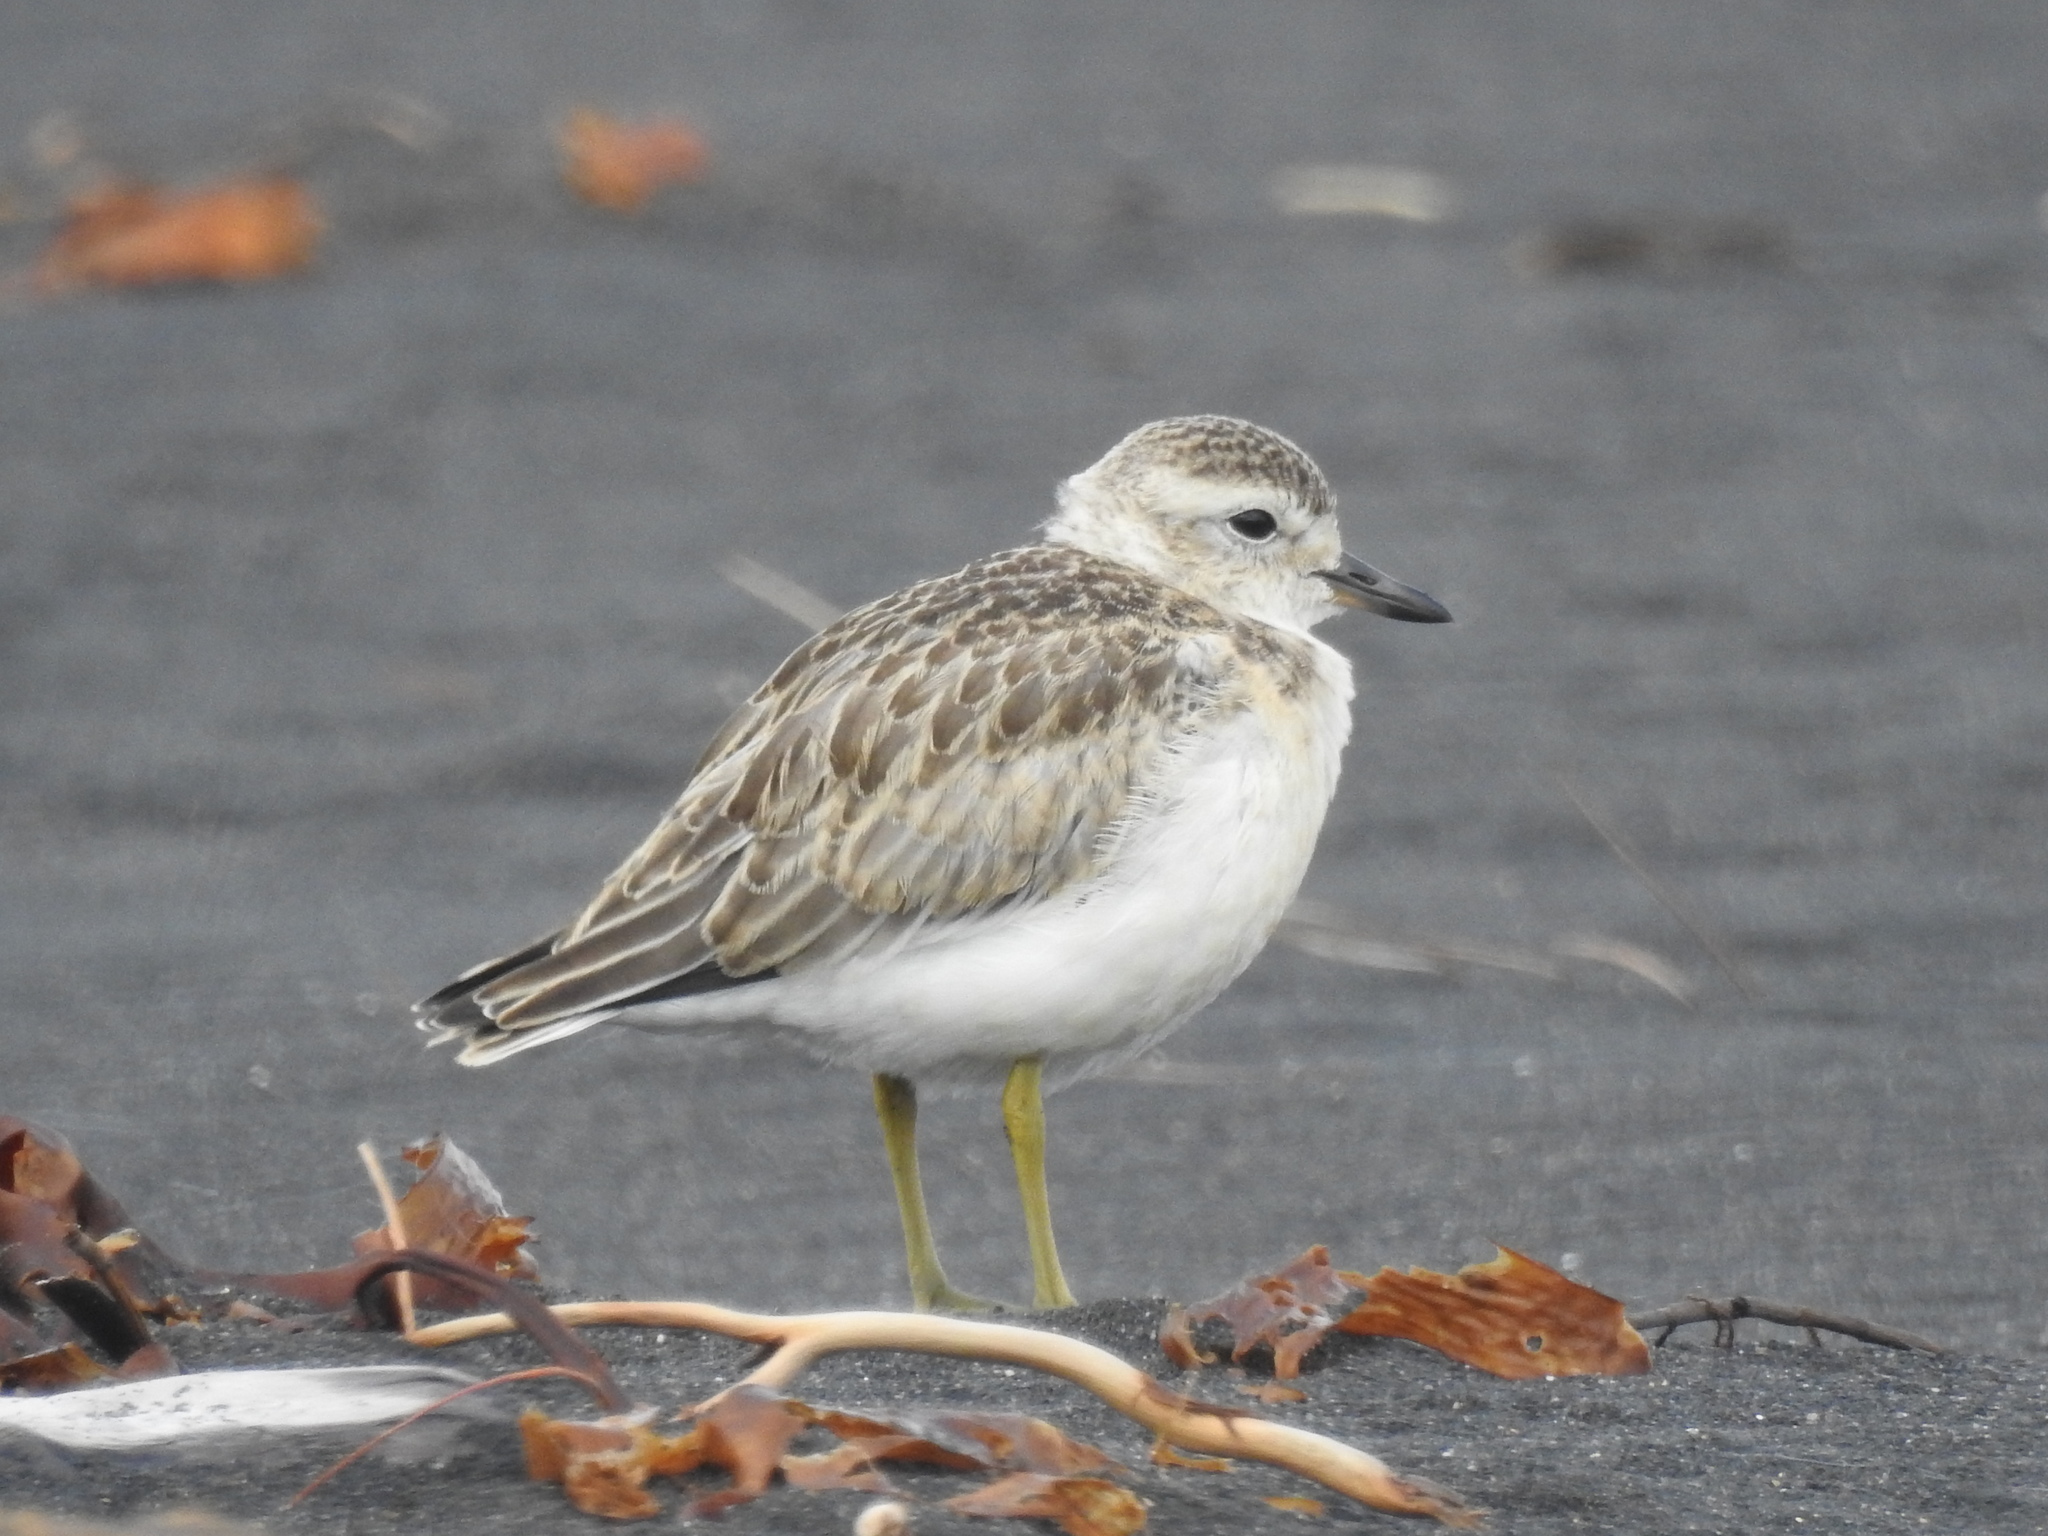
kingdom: Animalia
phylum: Chordata
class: Aves
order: Charadriiformes
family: Charadriidae
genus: Anarhynchus
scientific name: Anarhynchus
